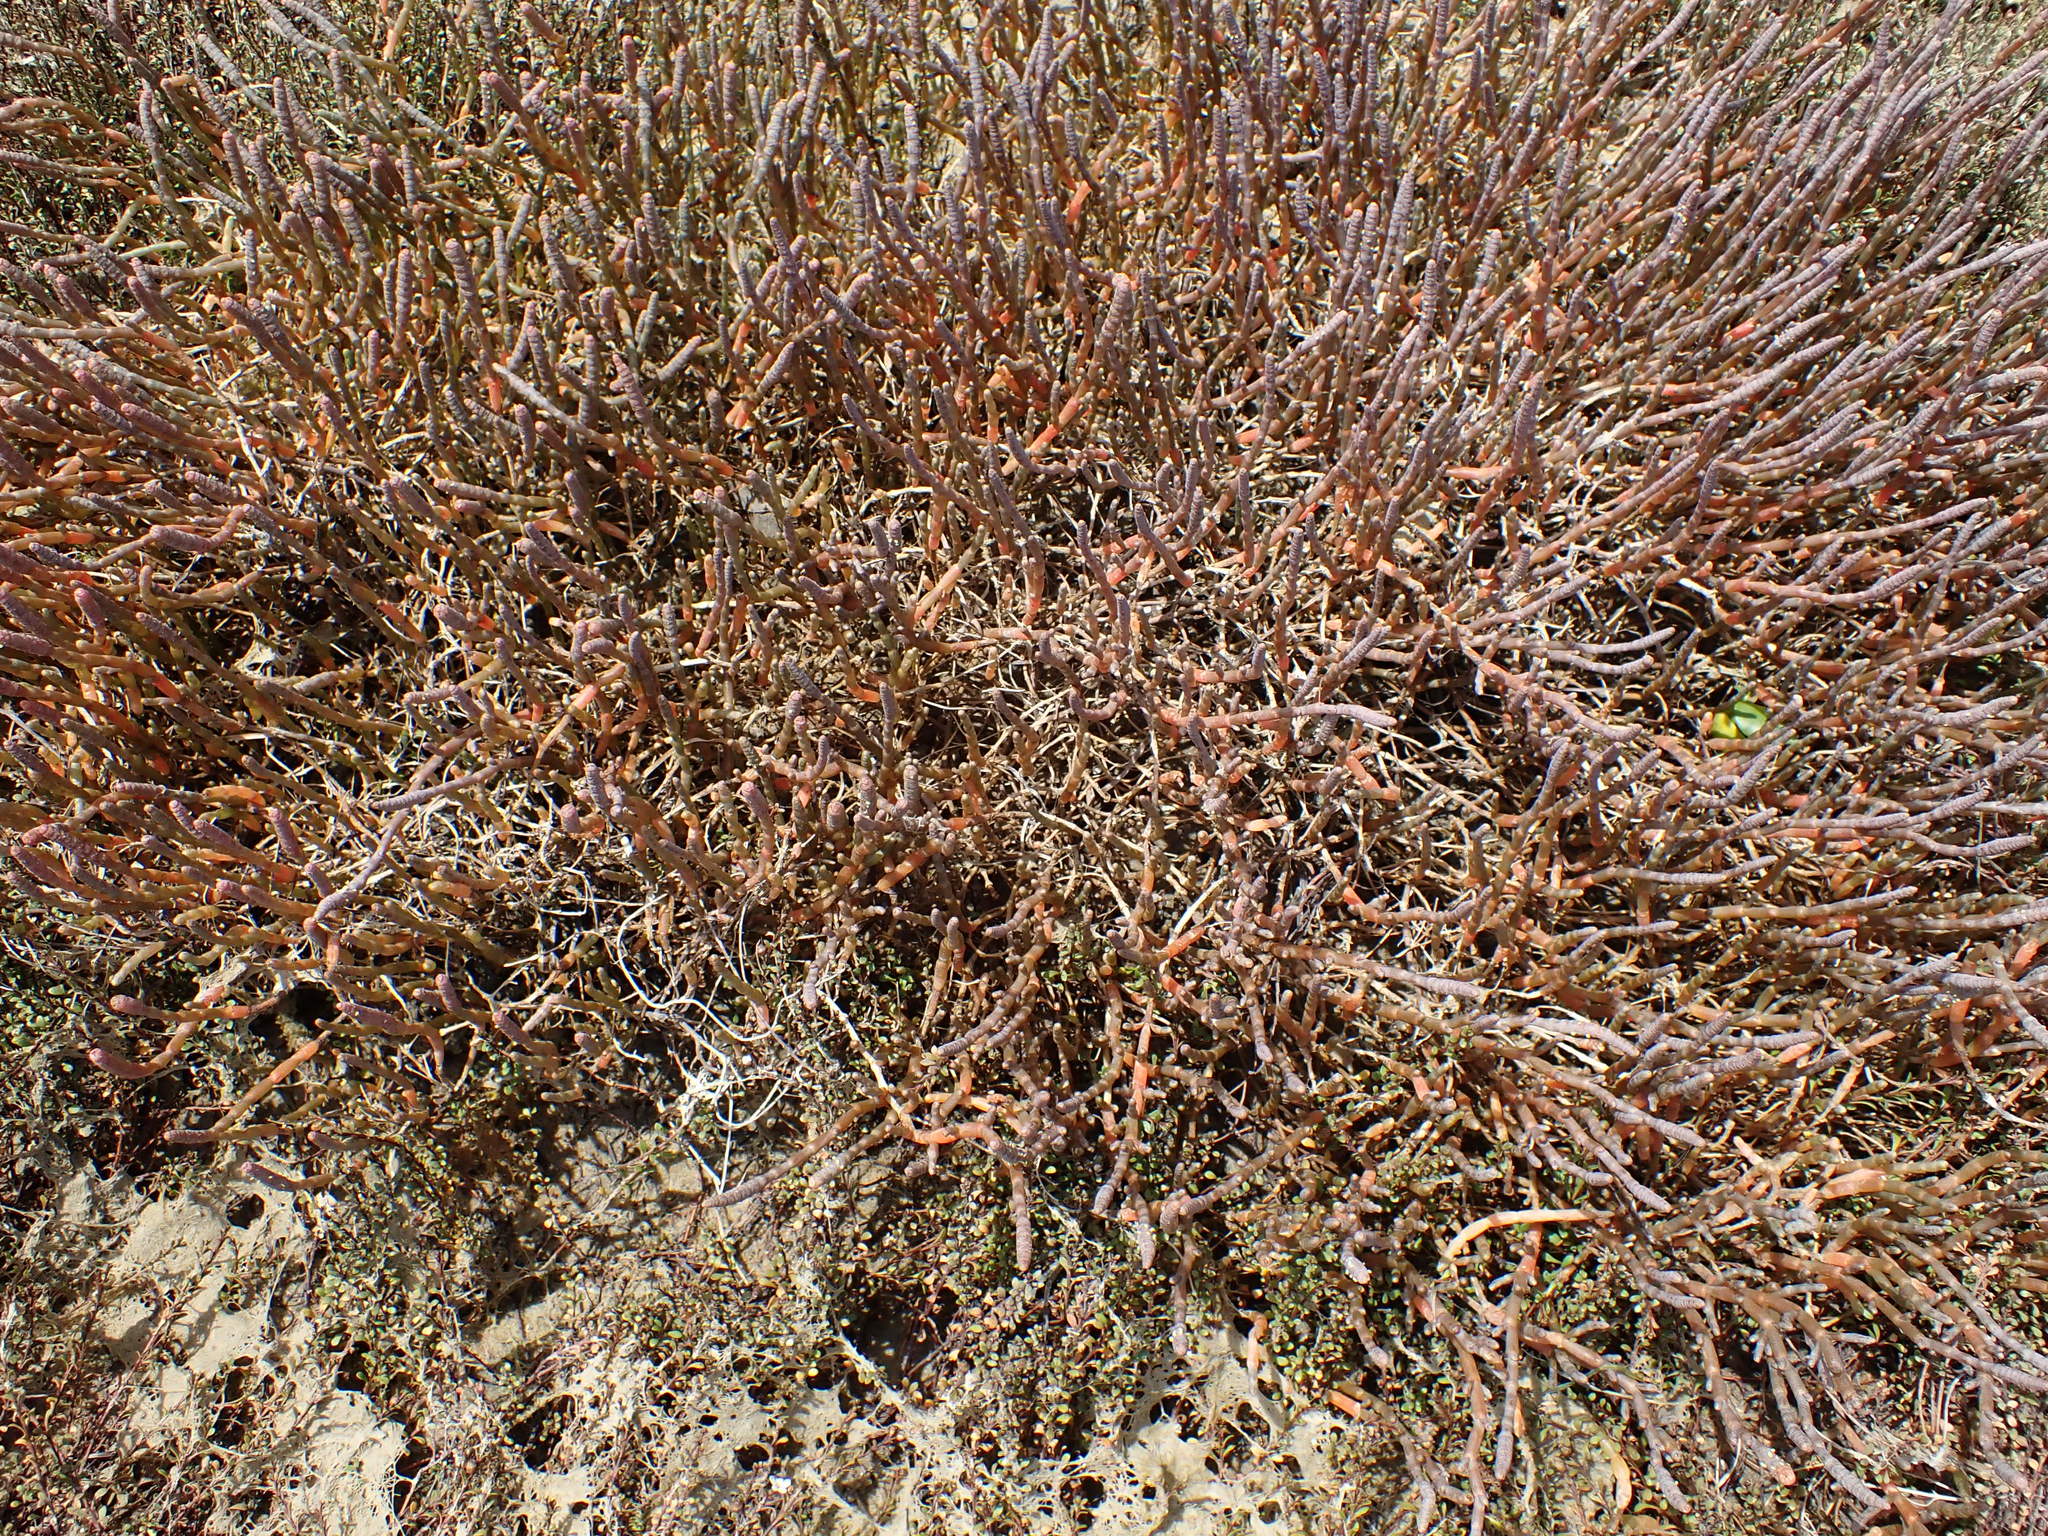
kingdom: Plantae
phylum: Tracheophyta
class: Magnoliopsida
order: Caryophyllales
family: Amaranthaceae
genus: Salicornia
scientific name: Salicornia quinqueflora
